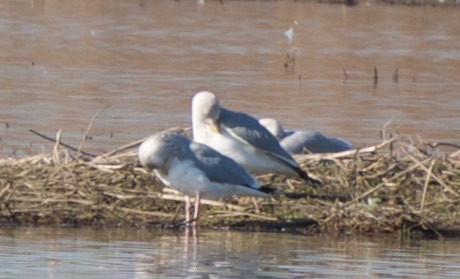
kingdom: Animalia
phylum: Chordata
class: Aves
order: Charadriiformes
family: Laridae
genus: Larus
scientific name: Larus argentatus
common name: Herring gull
